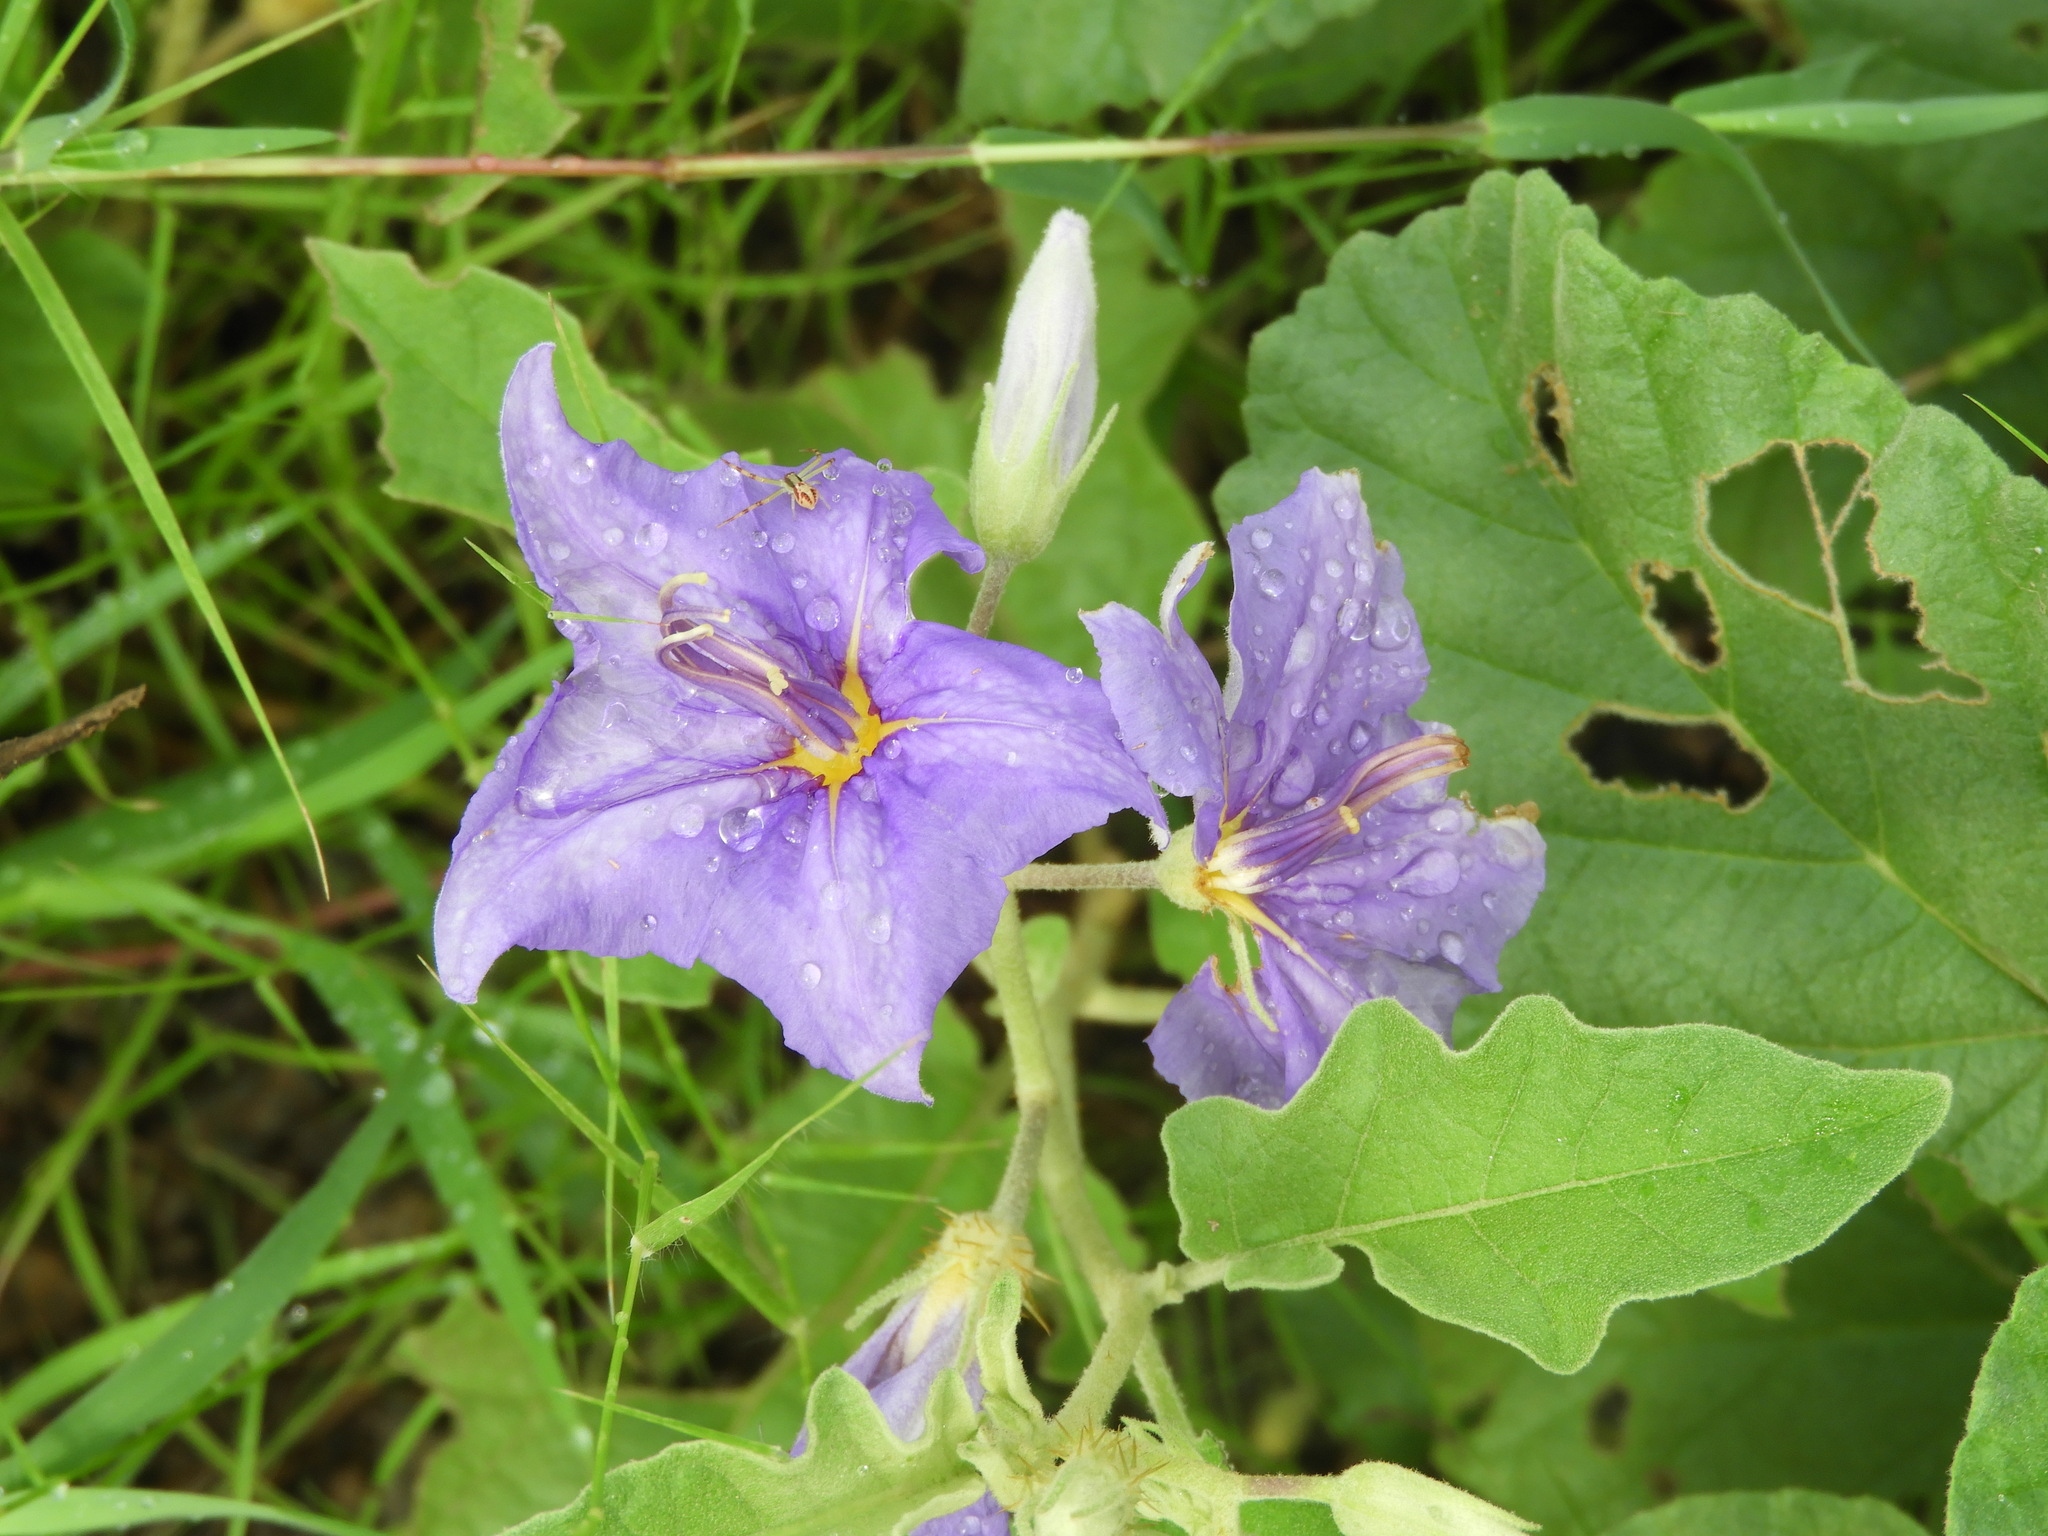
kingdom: Plantae
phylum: Tracheophyta
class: Magnoliopsida
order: Solanales
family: Solanaceae
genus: Solanum
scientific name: Solanum houstonii
